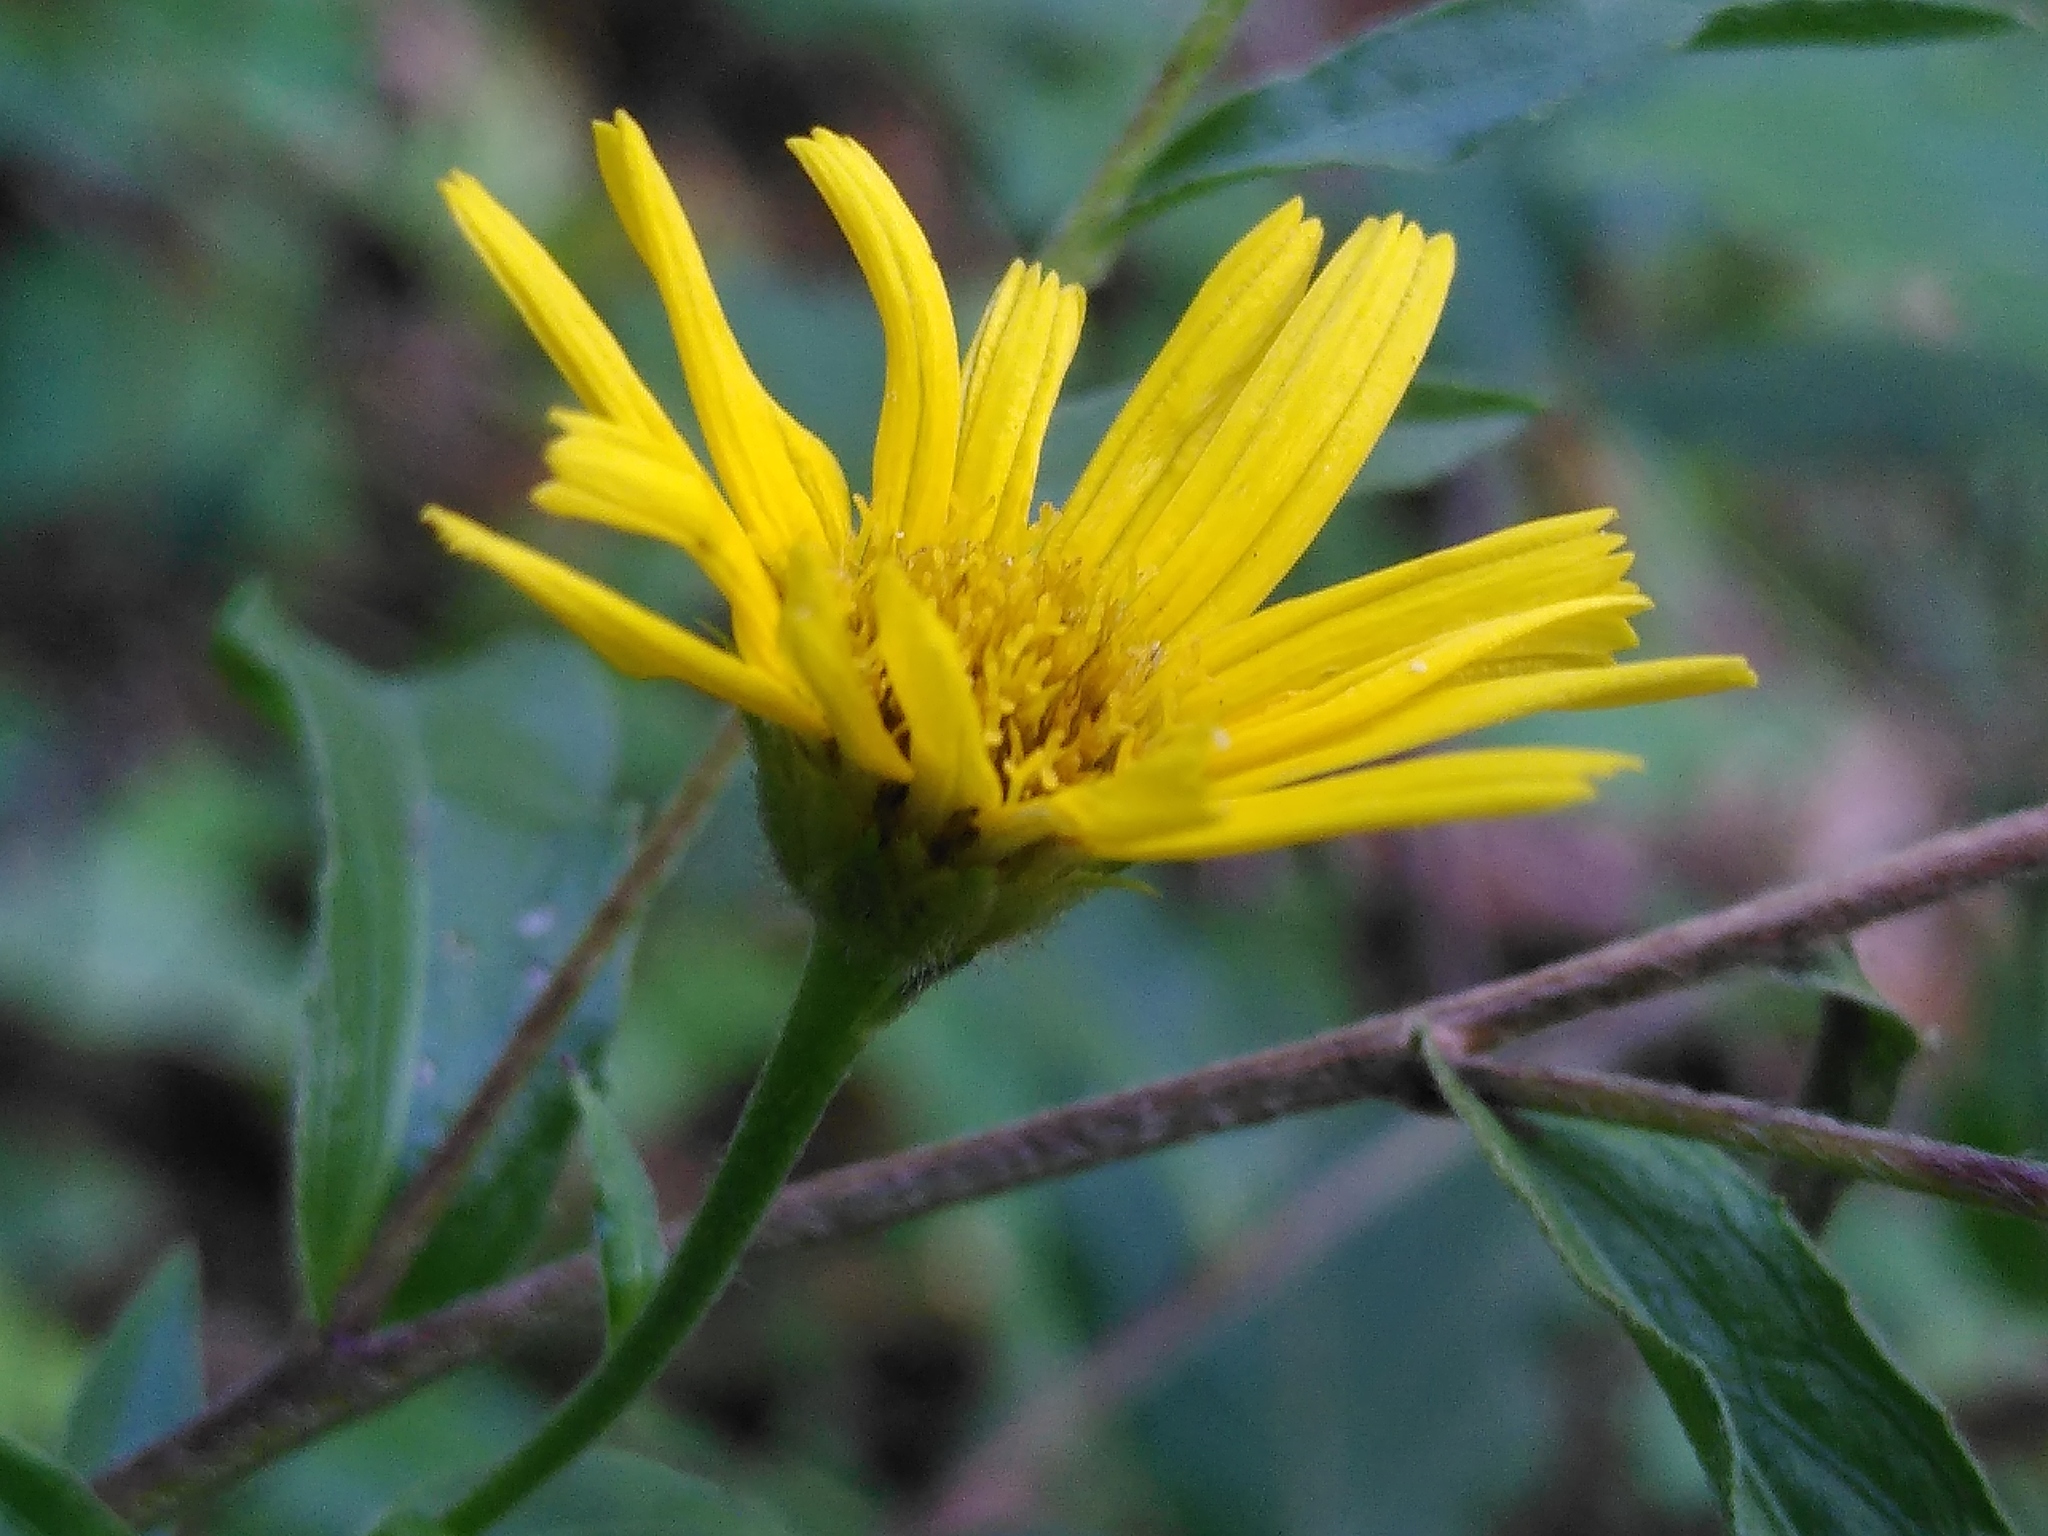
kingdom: Plantae
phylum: Tracheophyta
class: Magnoliopsida
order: Asterales
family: Asteraceae
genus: Buphthalmum
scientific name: Buphthalmum salicifolium
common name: Willow-leaved yellow-oxeye
